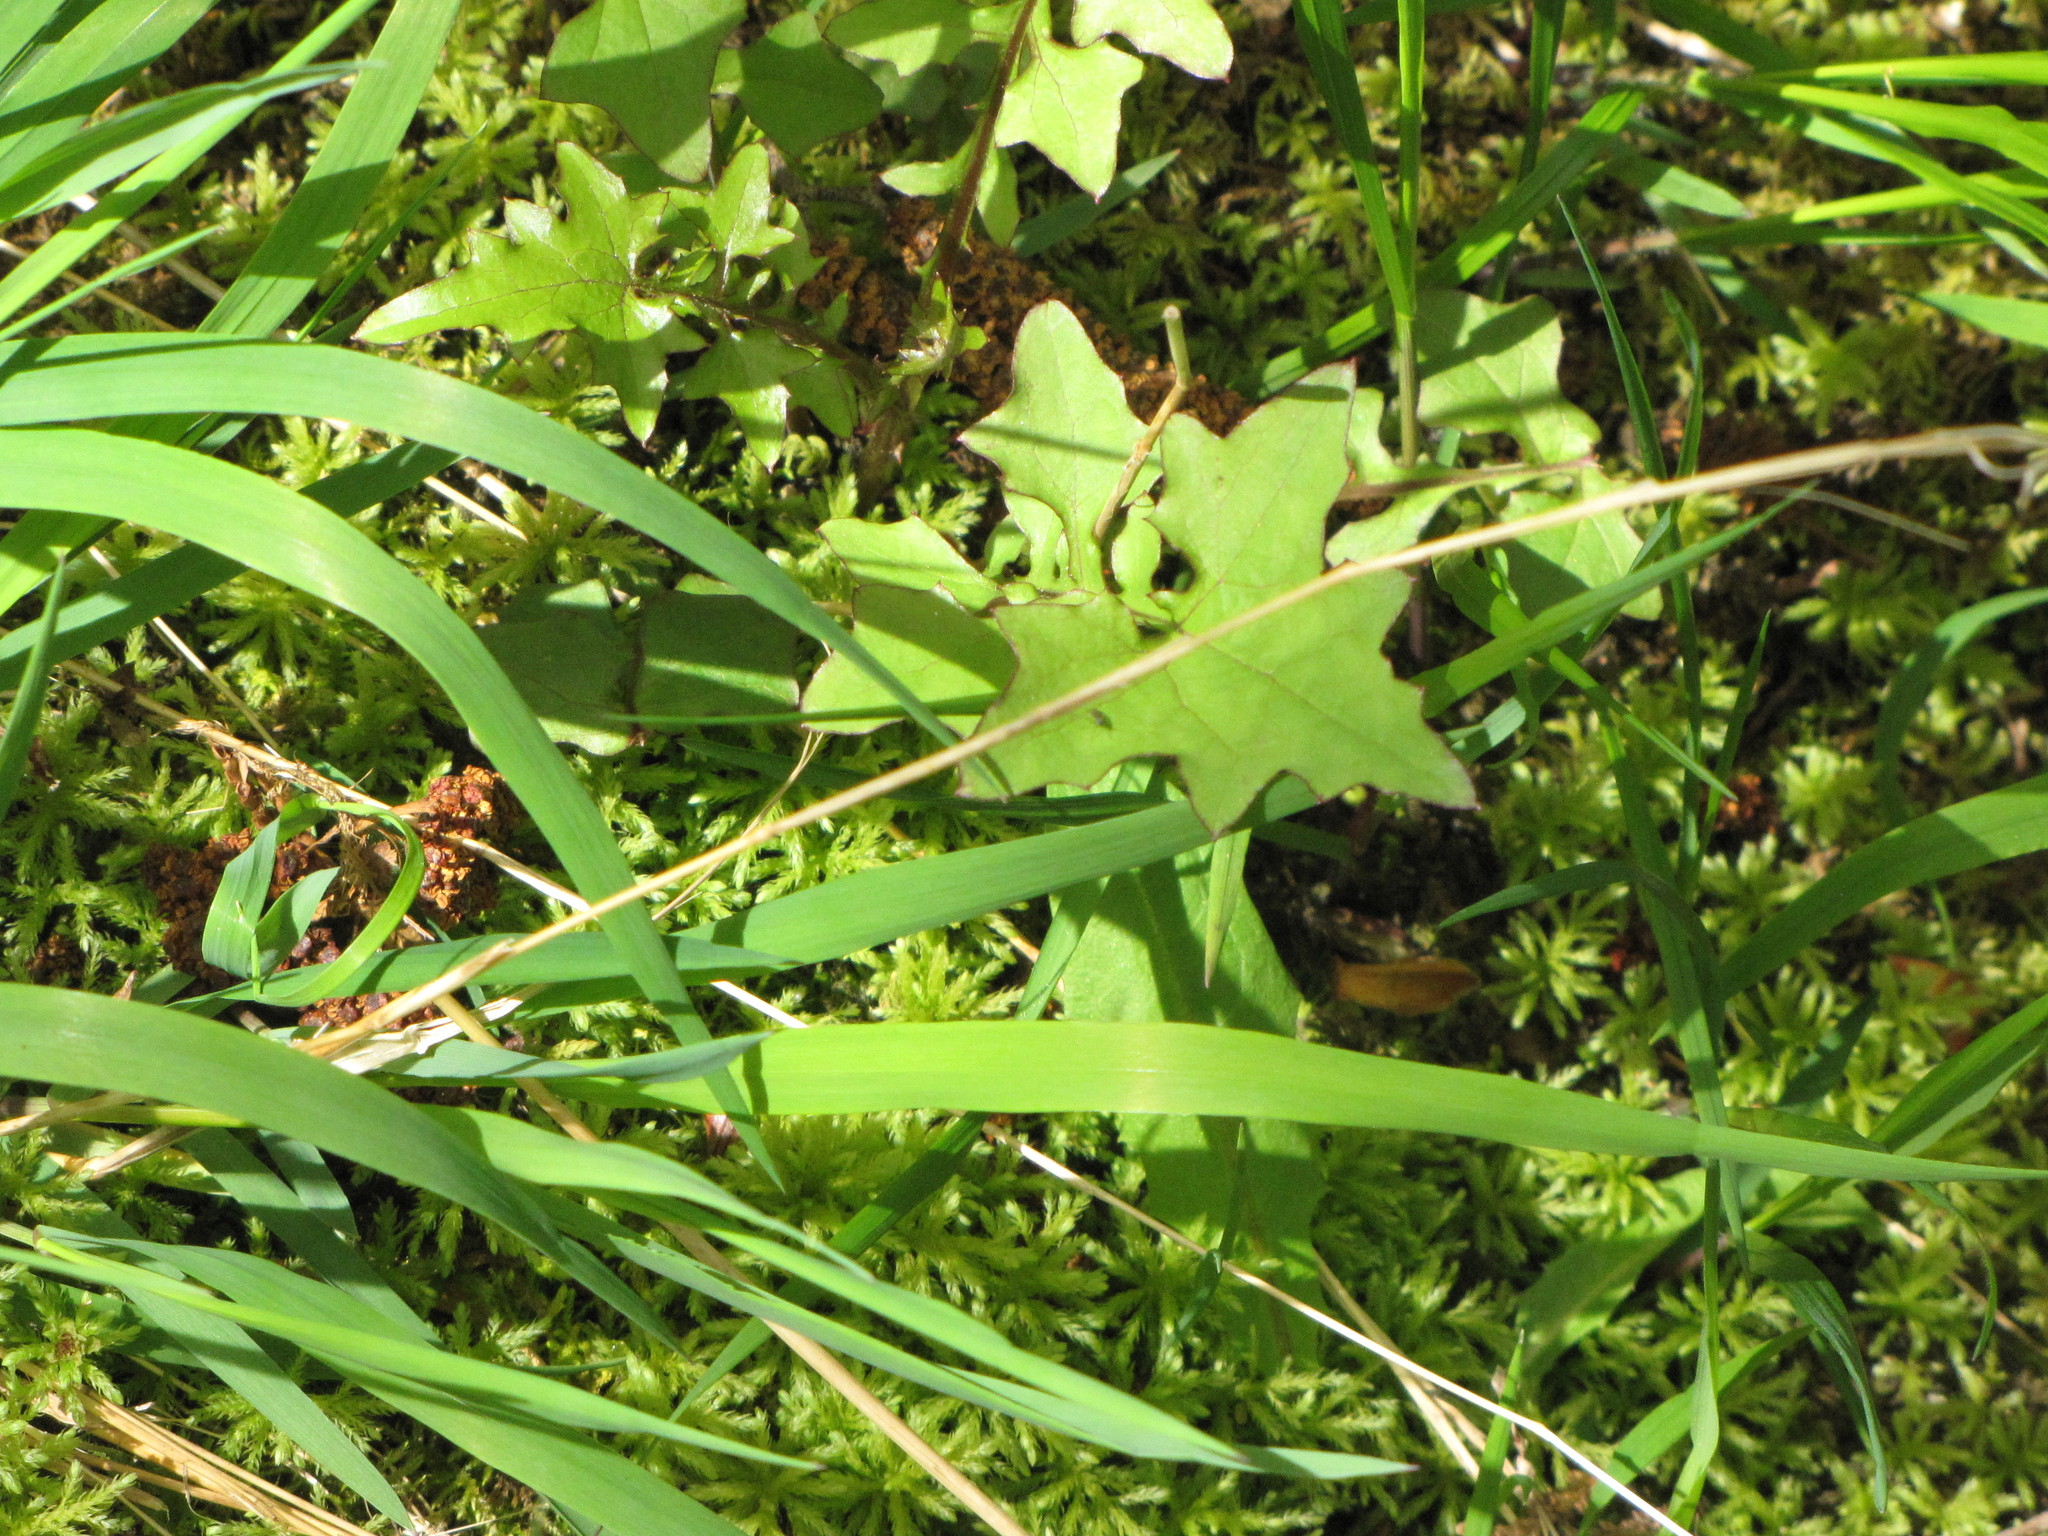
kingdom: Plantae
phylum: Tracheophyta
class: Magnoliopsida
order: Asterales
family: Asteraceae
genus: Mycelis
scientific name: Mycelis muralis
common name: Wall lettuce
